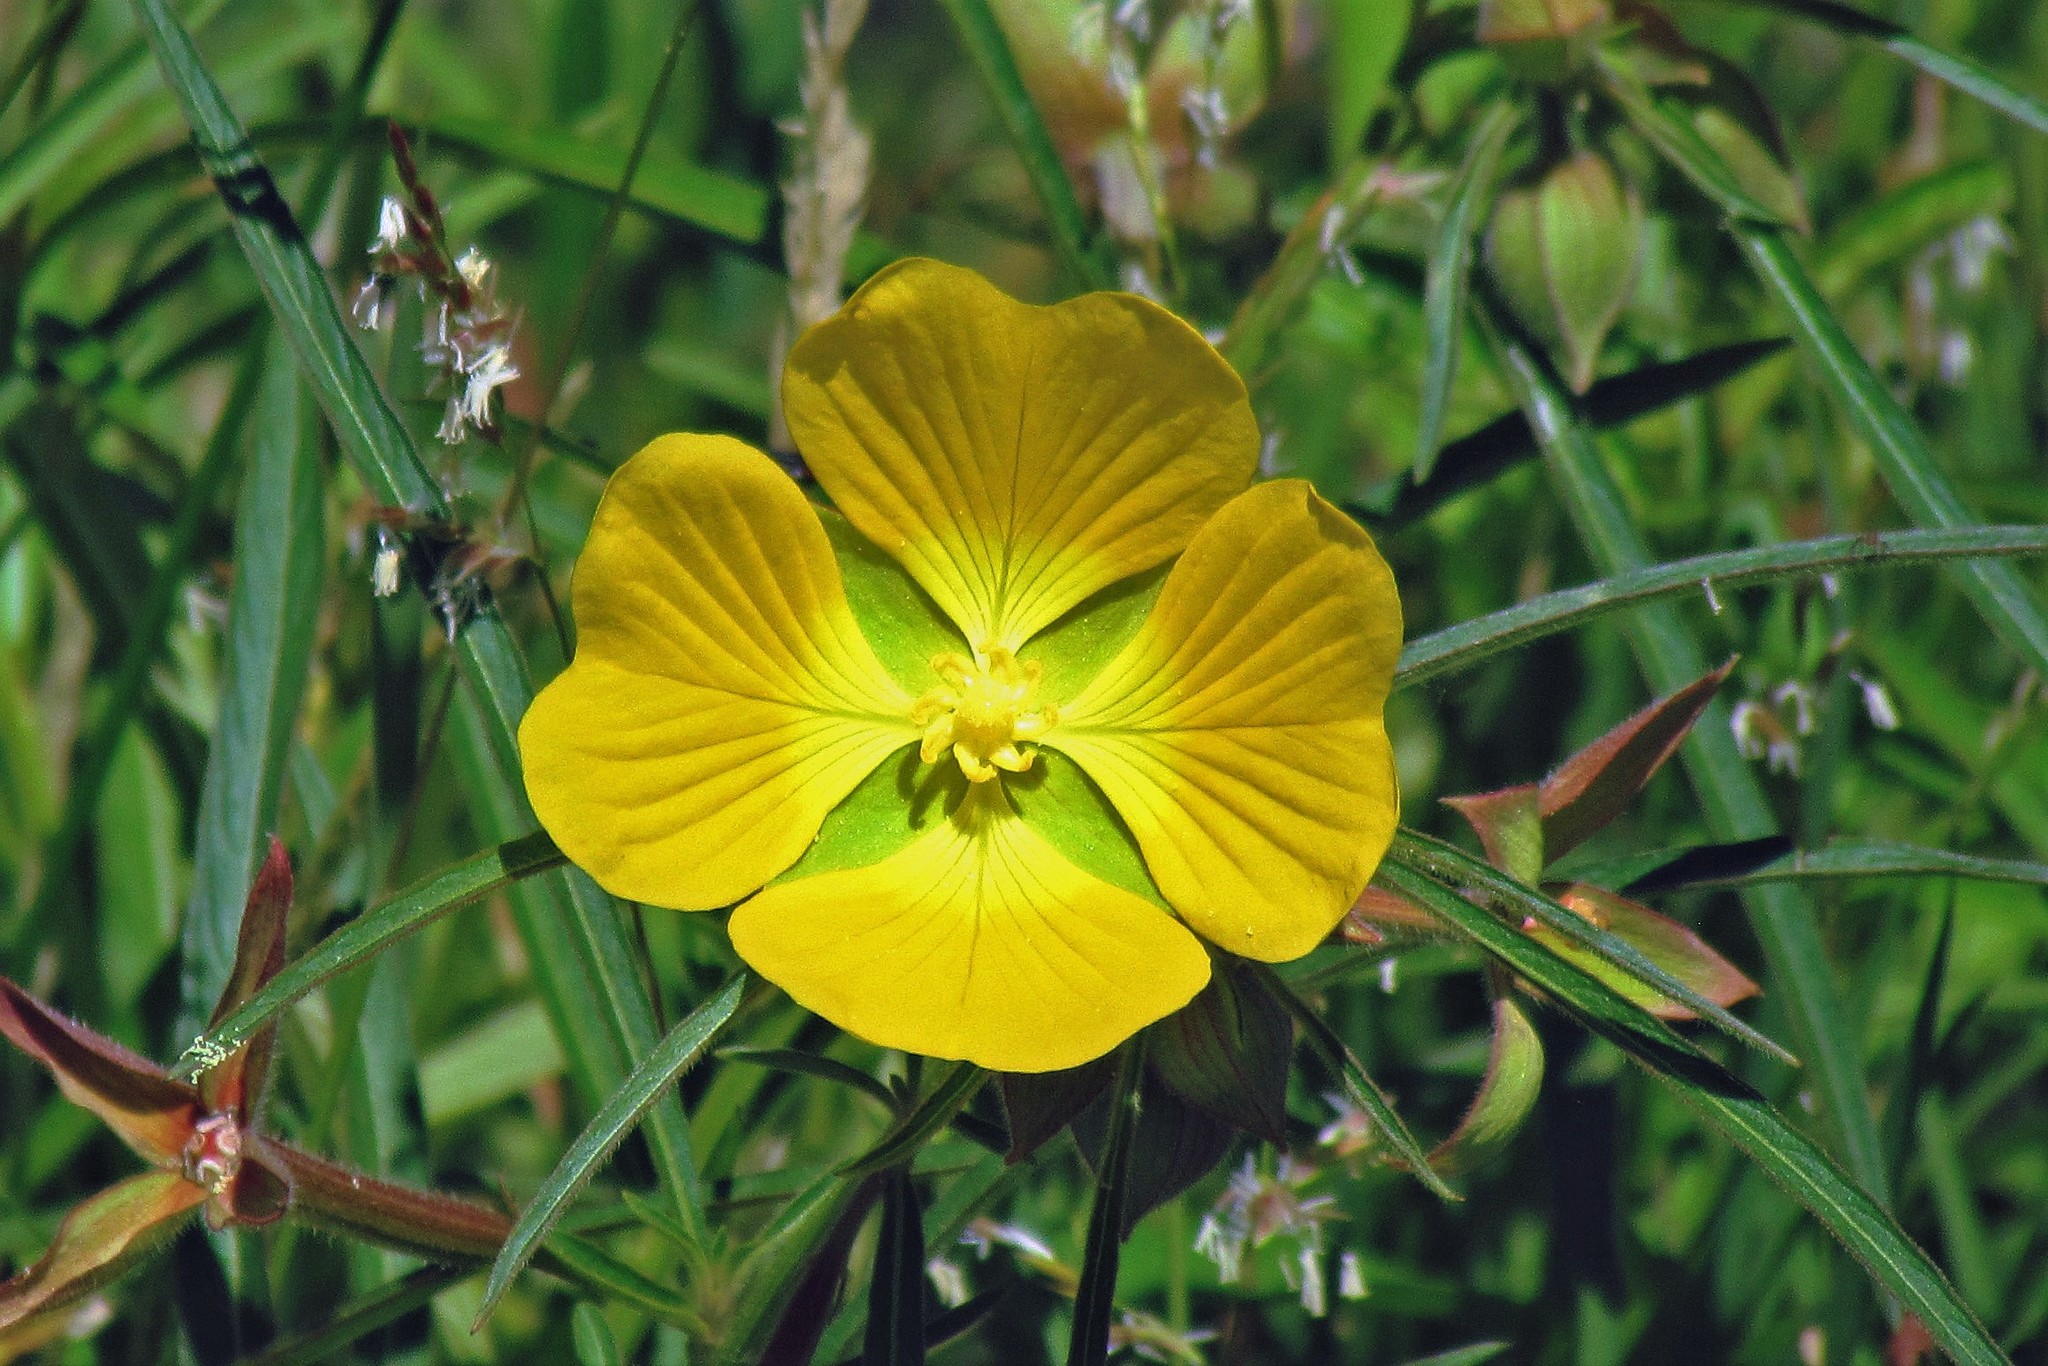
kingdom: Plantae
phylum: Tracheophyta
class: Magnoliopsida
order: Myrtales
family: Onagraceae
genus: Ludwigia
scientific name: Ludwigia bonariensis
